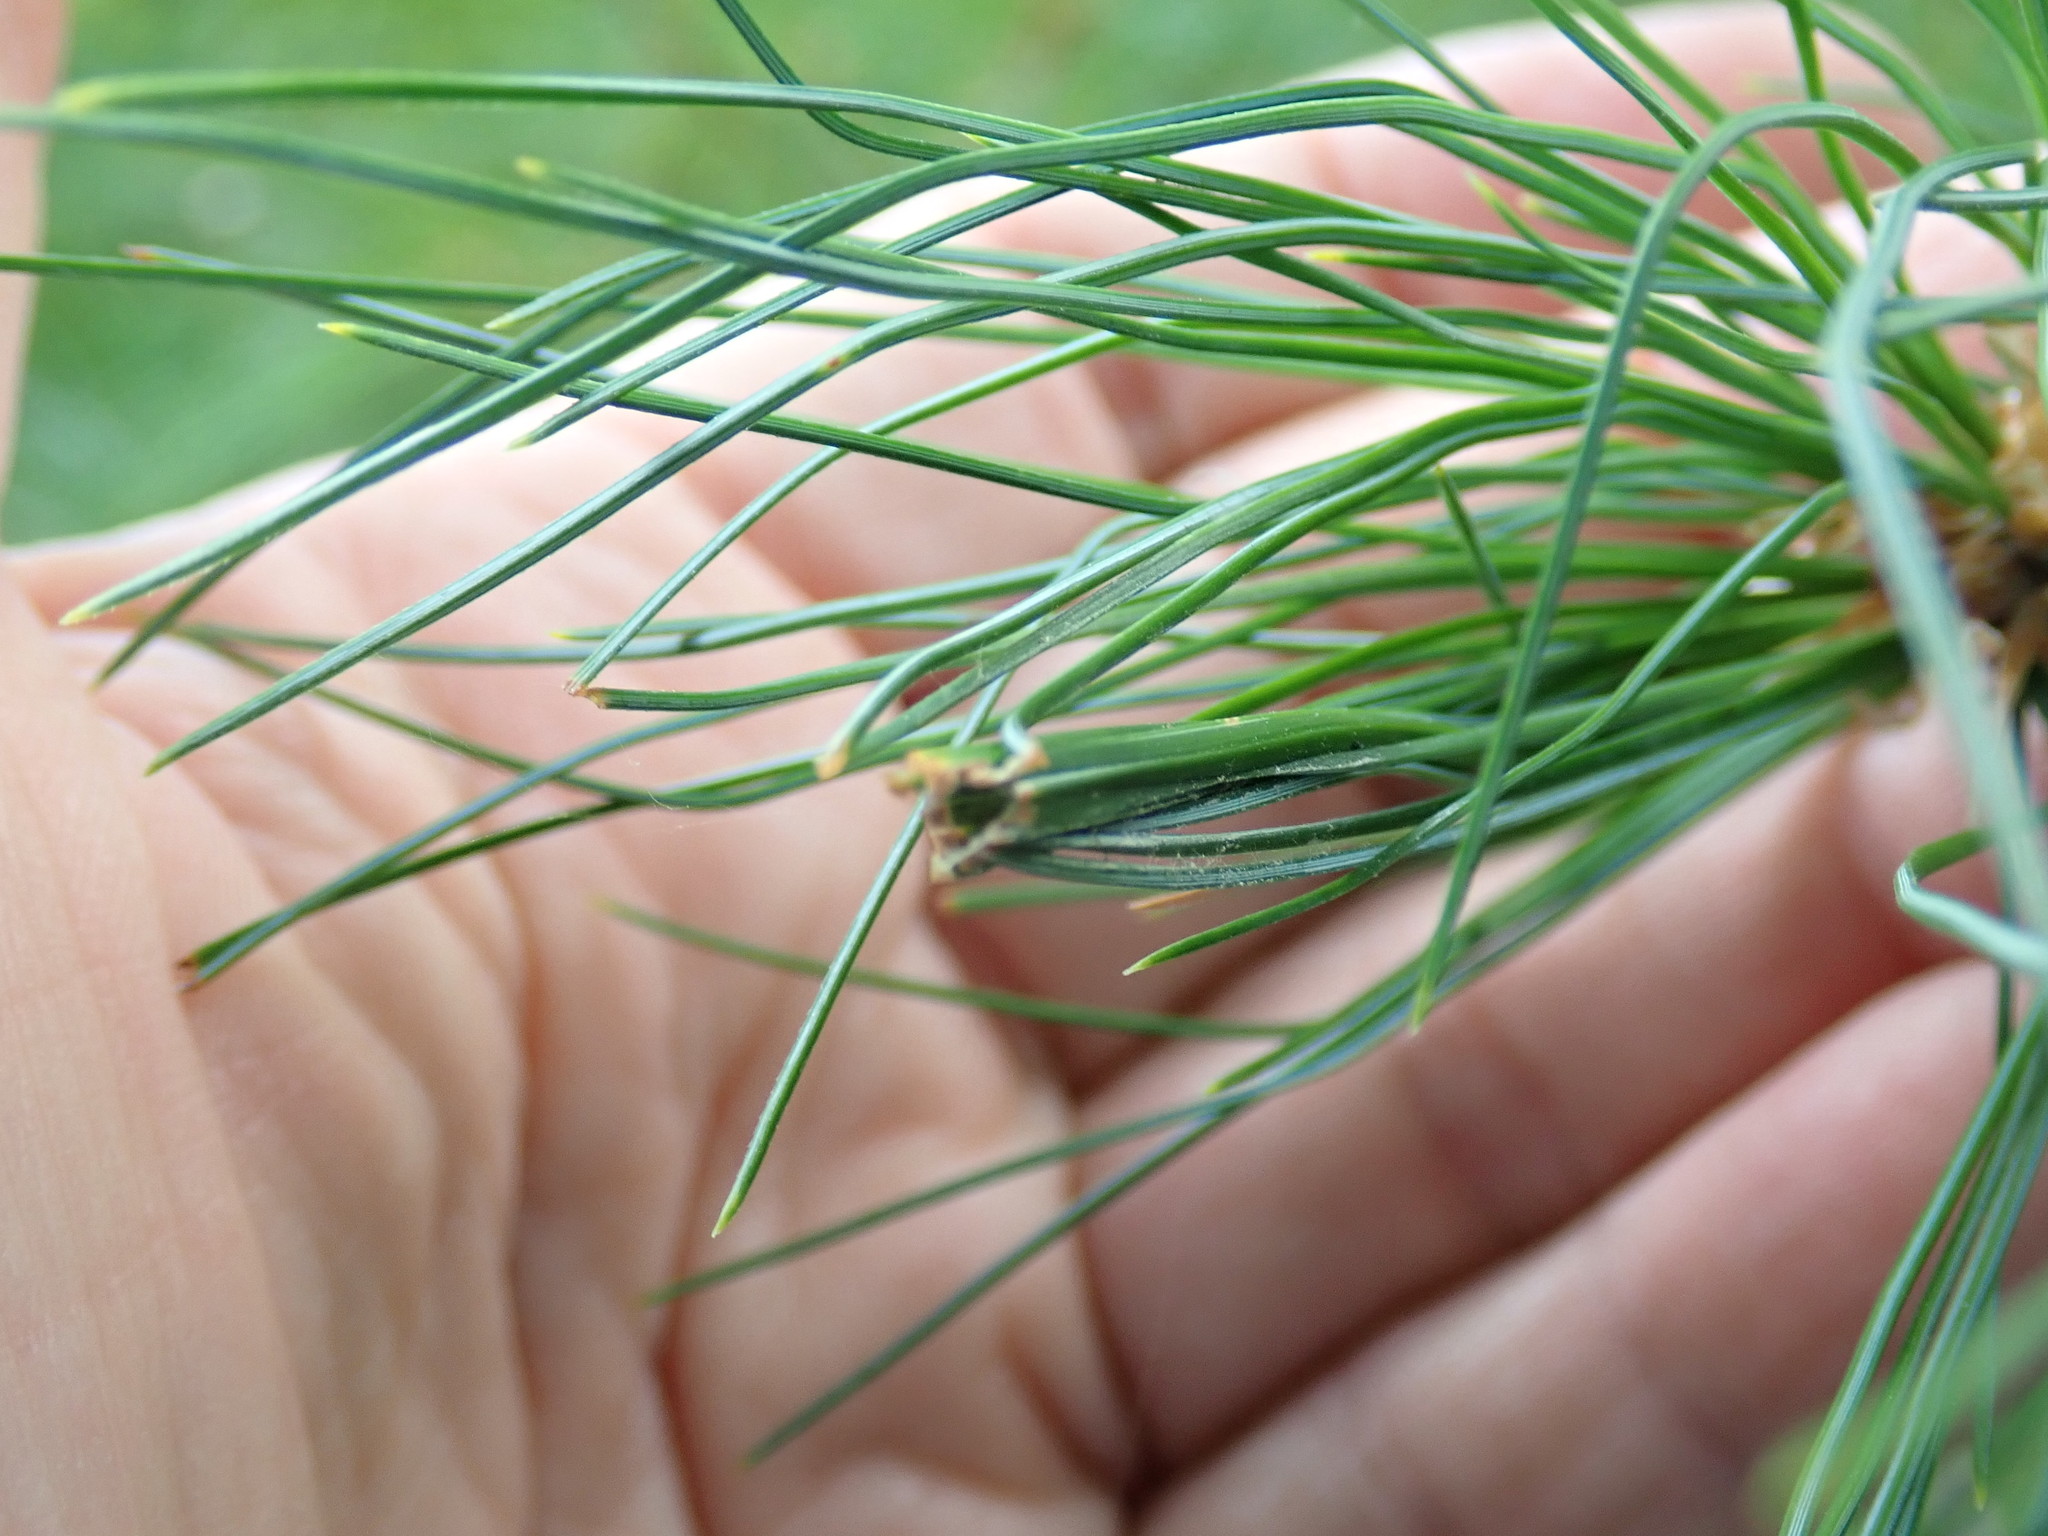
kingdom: Animalia
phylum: Arthropoda
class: Insecta
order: Lepidoptera
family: Tortricidae
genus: Argyrotaenia
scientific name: Argyrotaenia pinatubana
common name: Pine tube moth
